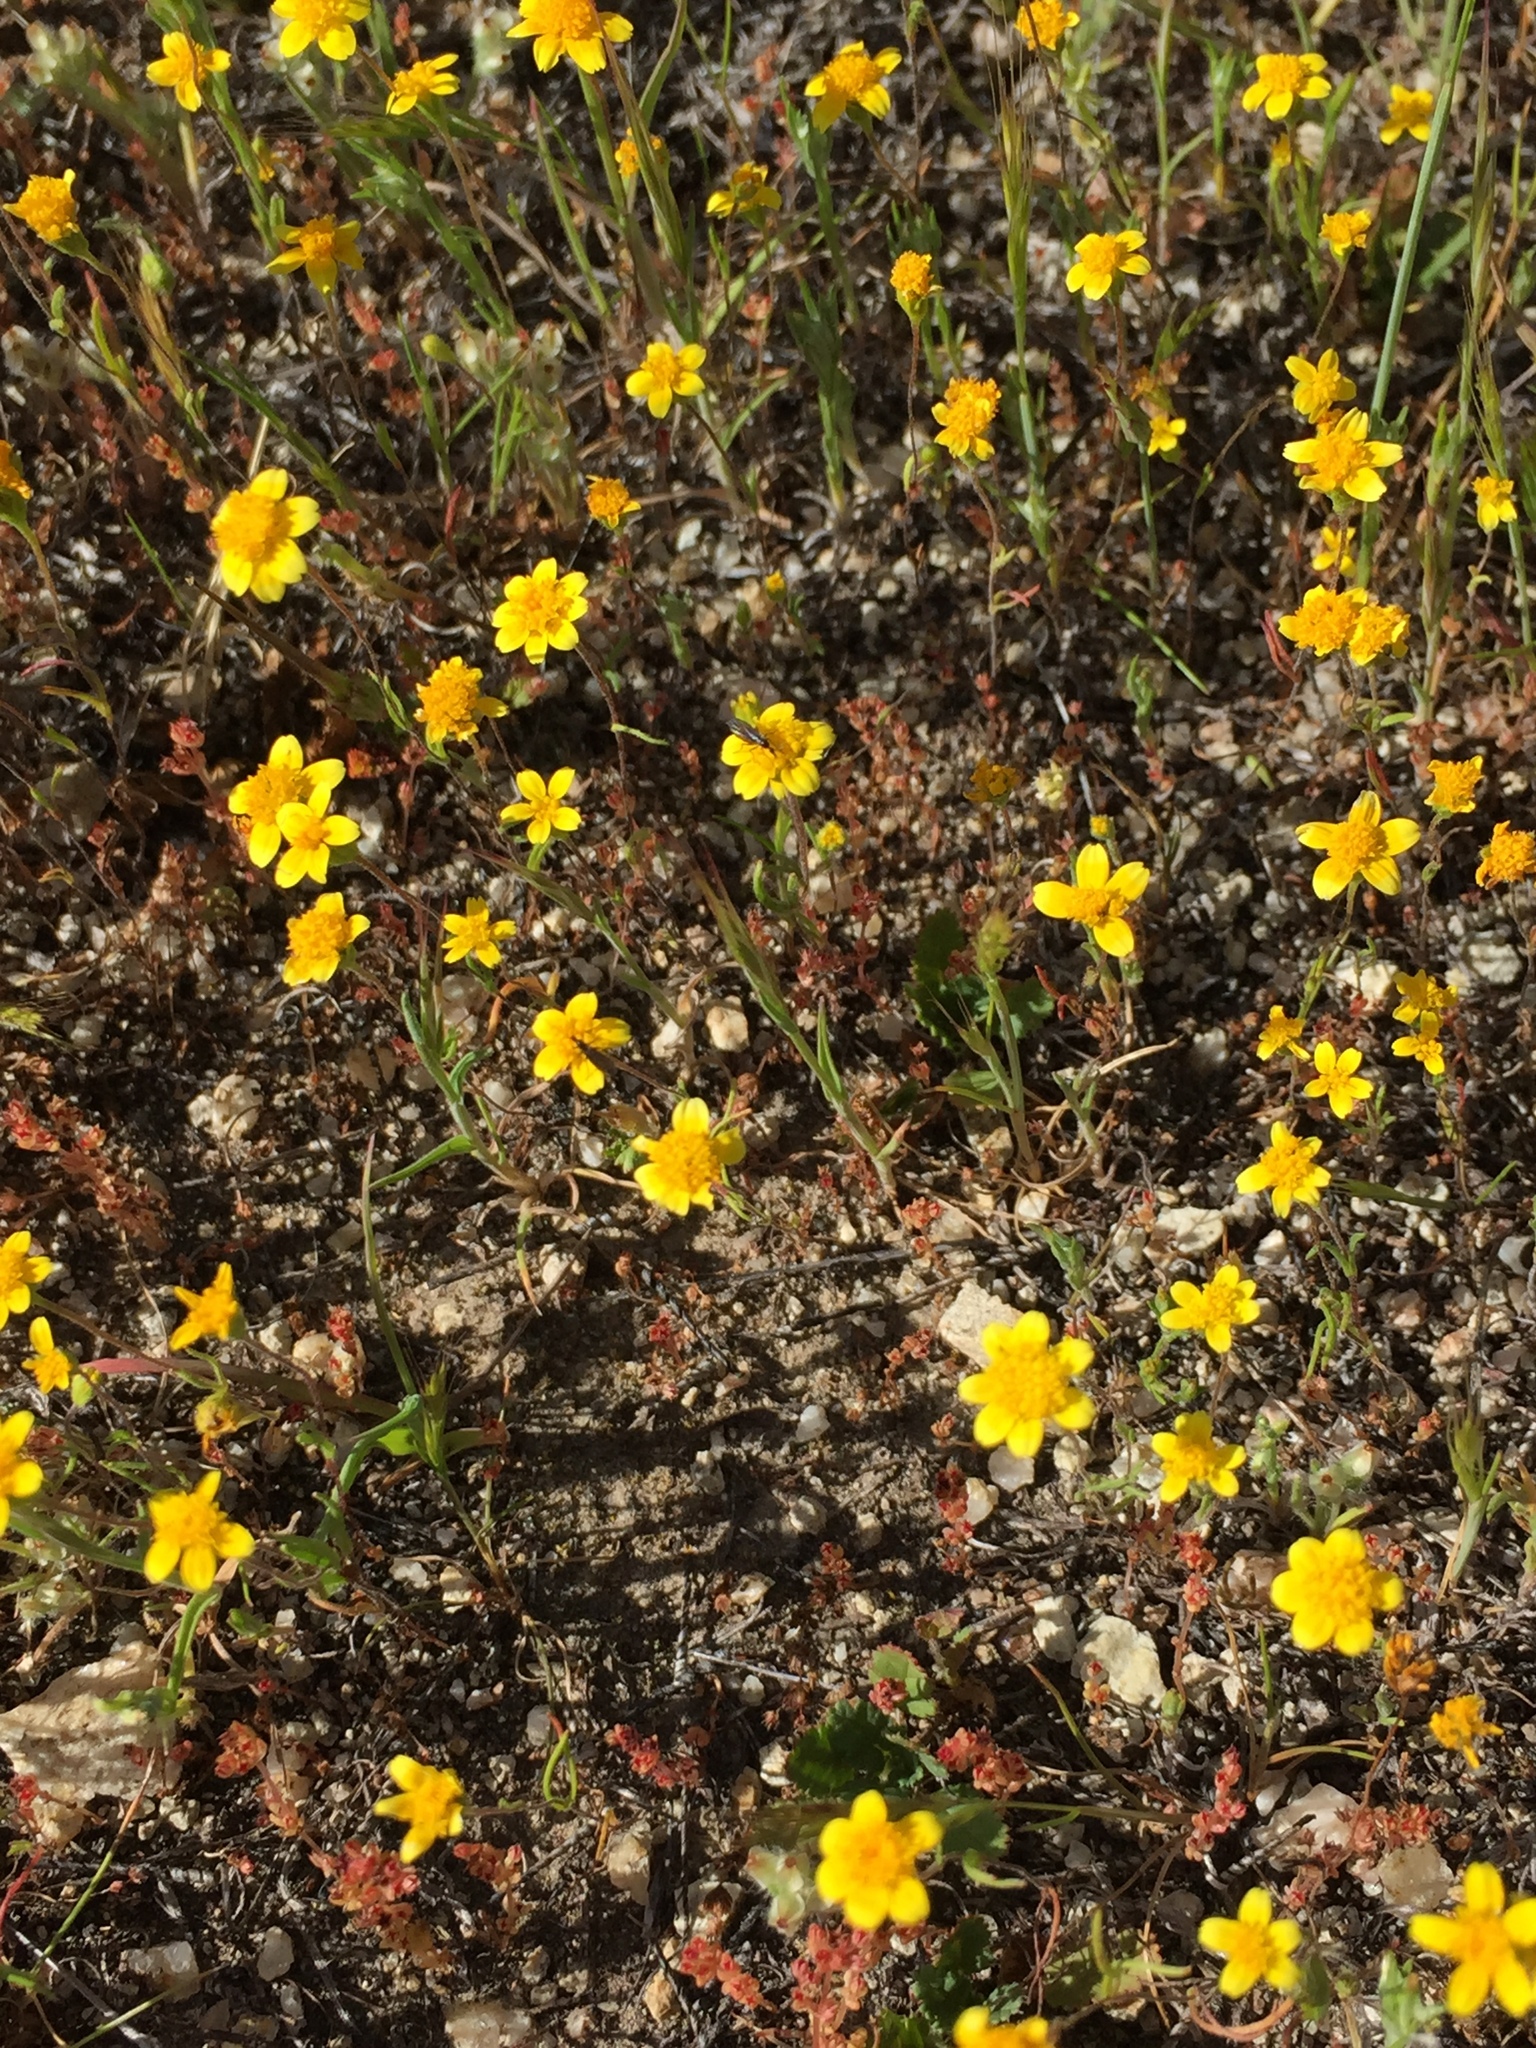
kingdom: Plantae
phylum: Tracheophyta
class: Magnoliopsida
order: Asterales
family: Asteraceae
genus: Lasthenia
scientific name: Lasthenia gracilis
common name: Common goldfields
